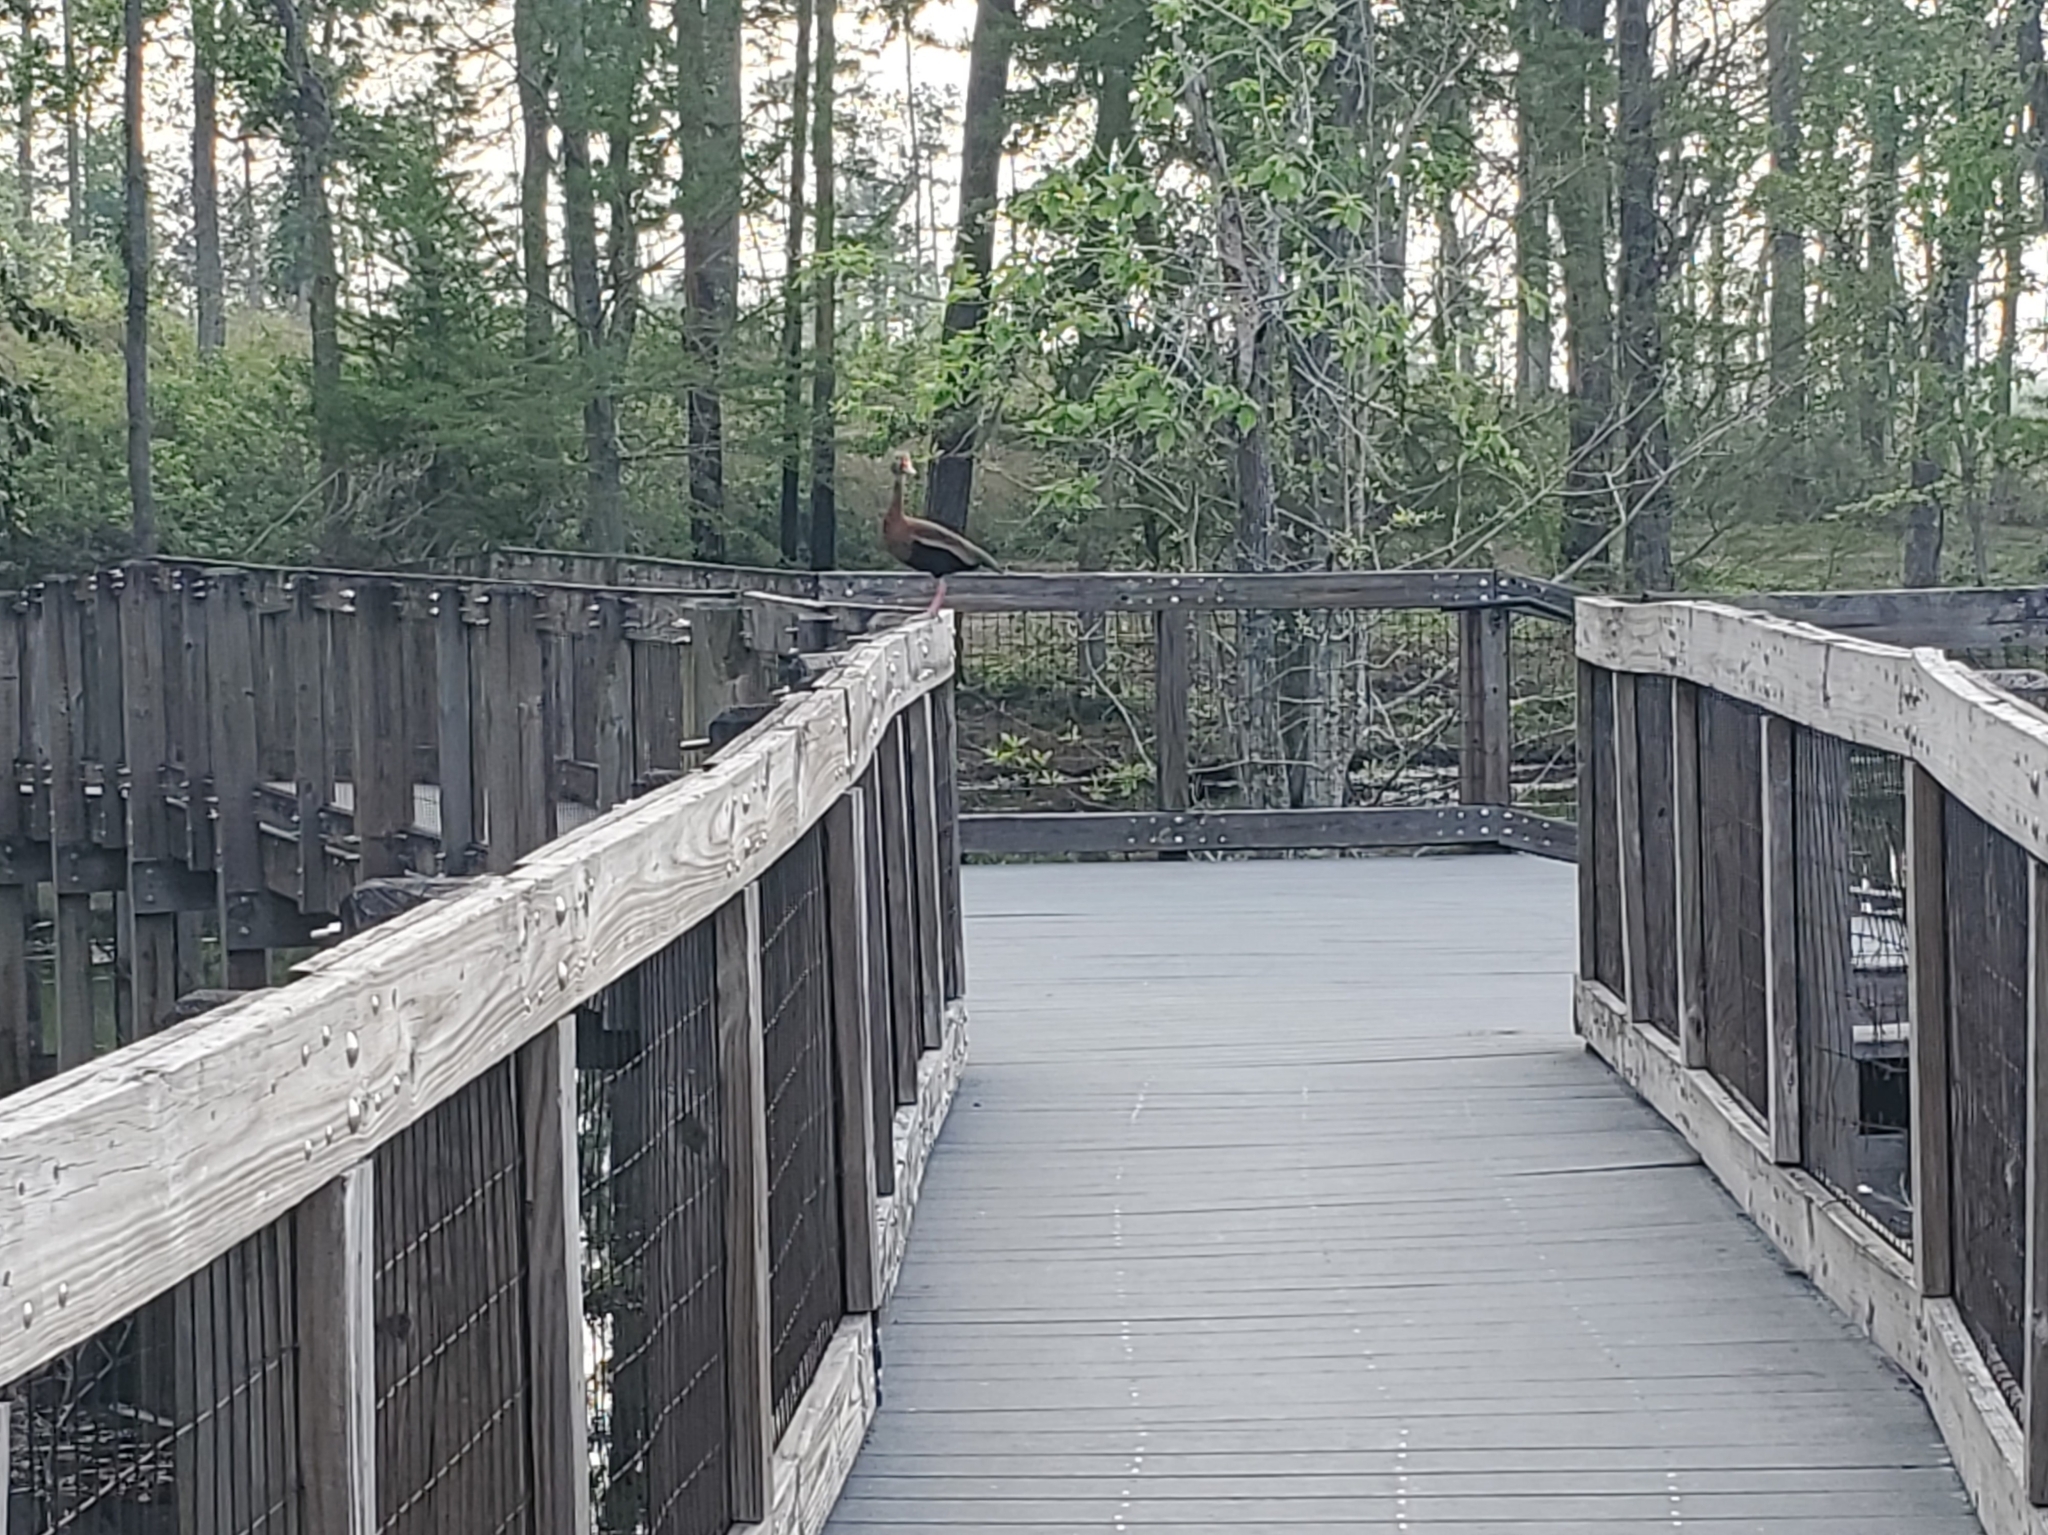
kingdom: Animalia
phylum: Chordata
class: Aves
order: Anseriformes
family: Anatidae
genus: Dendrocygna
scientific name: Dendrocygna autumnalis
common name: Black-bellied whistling duck
